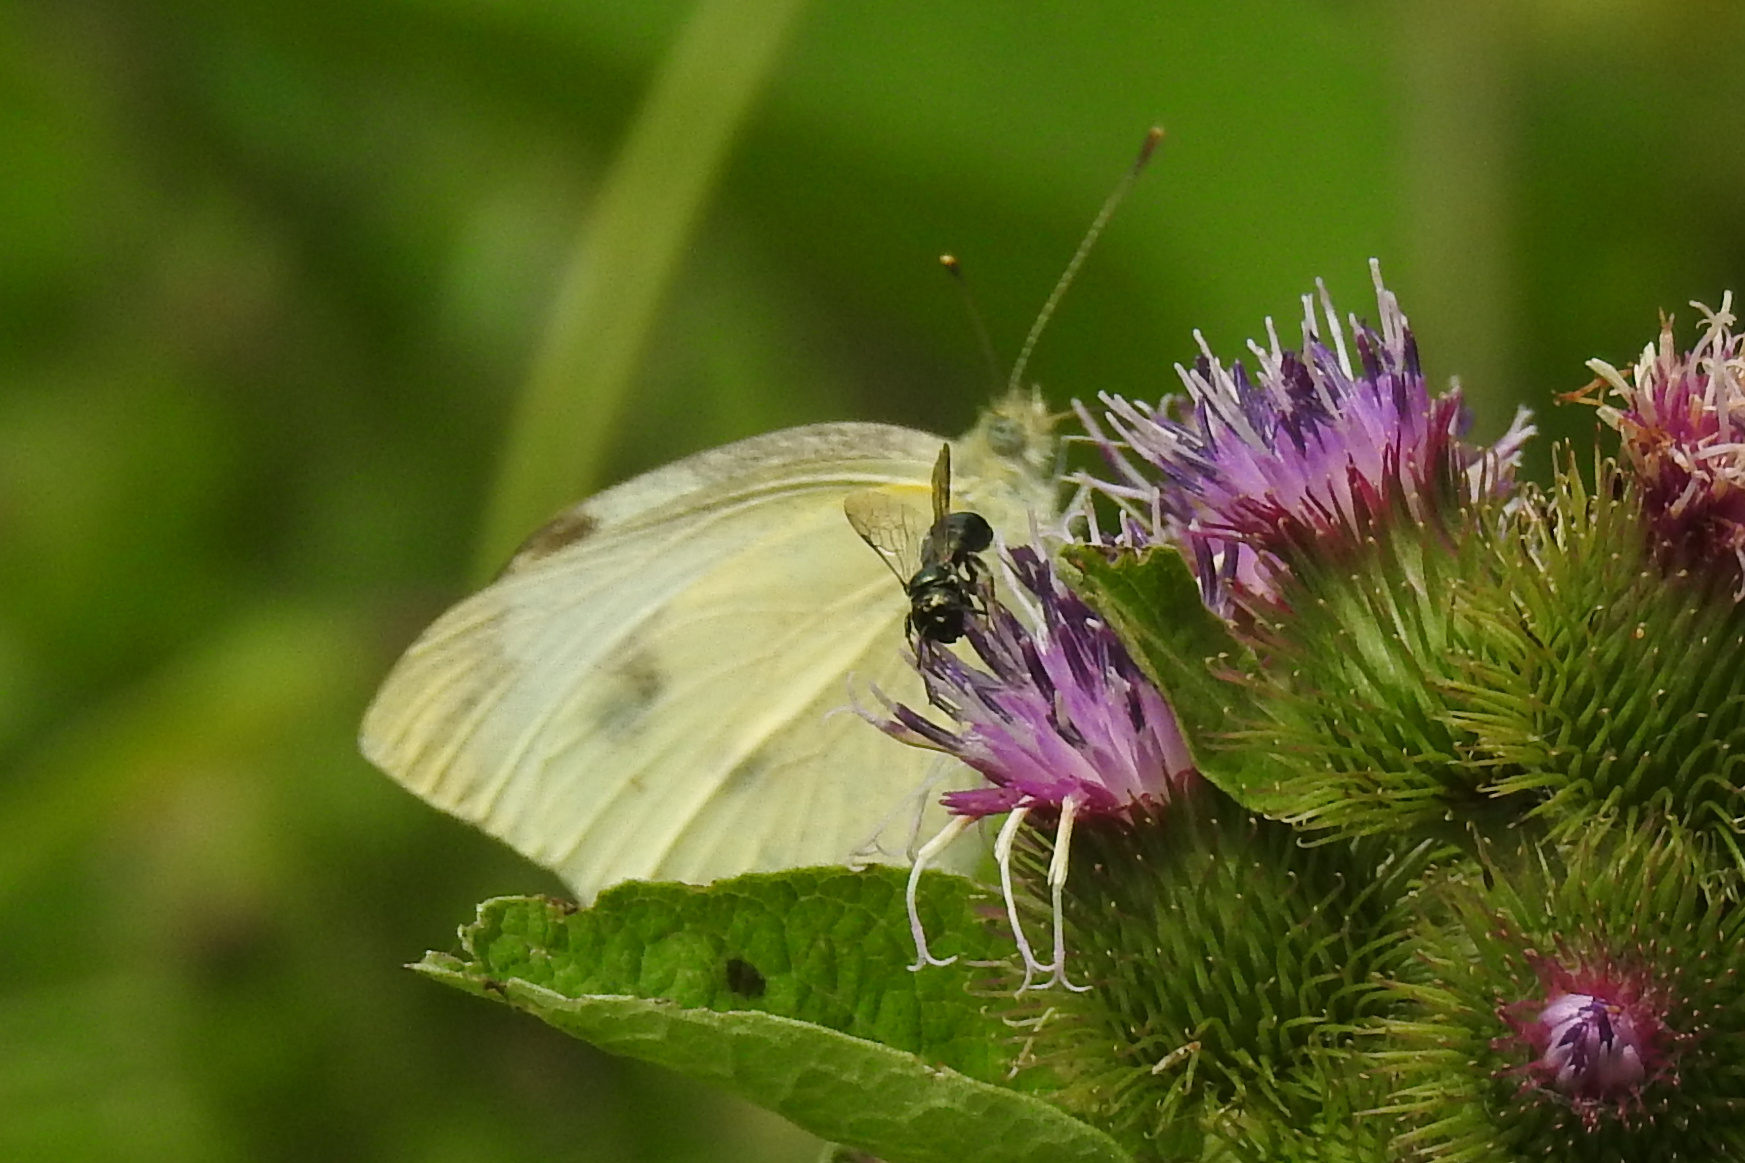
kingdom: Animalia
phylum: Arthropoda
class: Insecta
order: Lepidoptera
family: Pieridae
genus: Pieris
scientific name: Pieris rapae
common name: Small white
